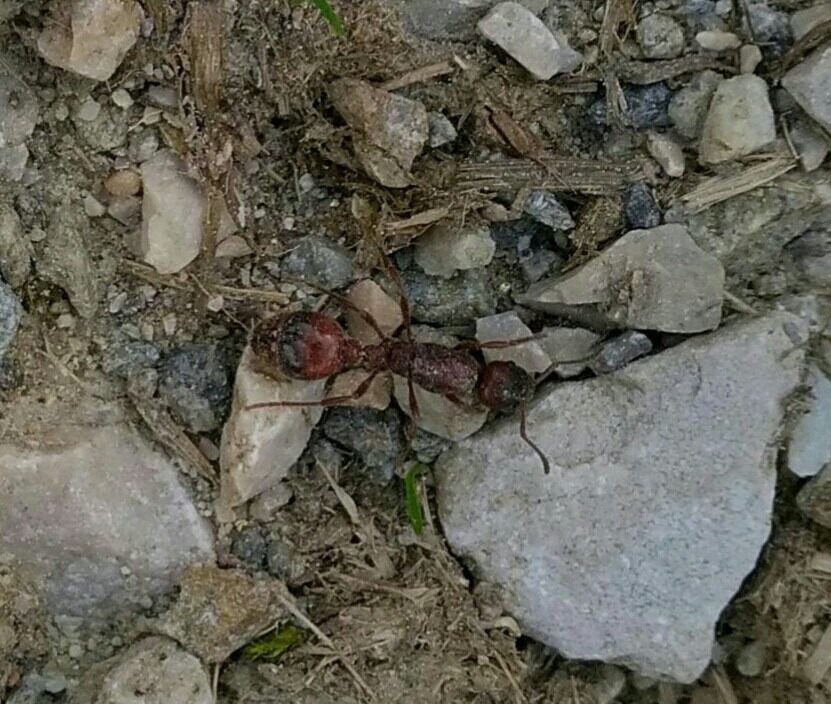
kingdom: Animalia
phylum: Arthropoda
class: Insecta
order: Hymenoptera
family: Formicidae
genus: Manica
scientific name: Manica rubida
